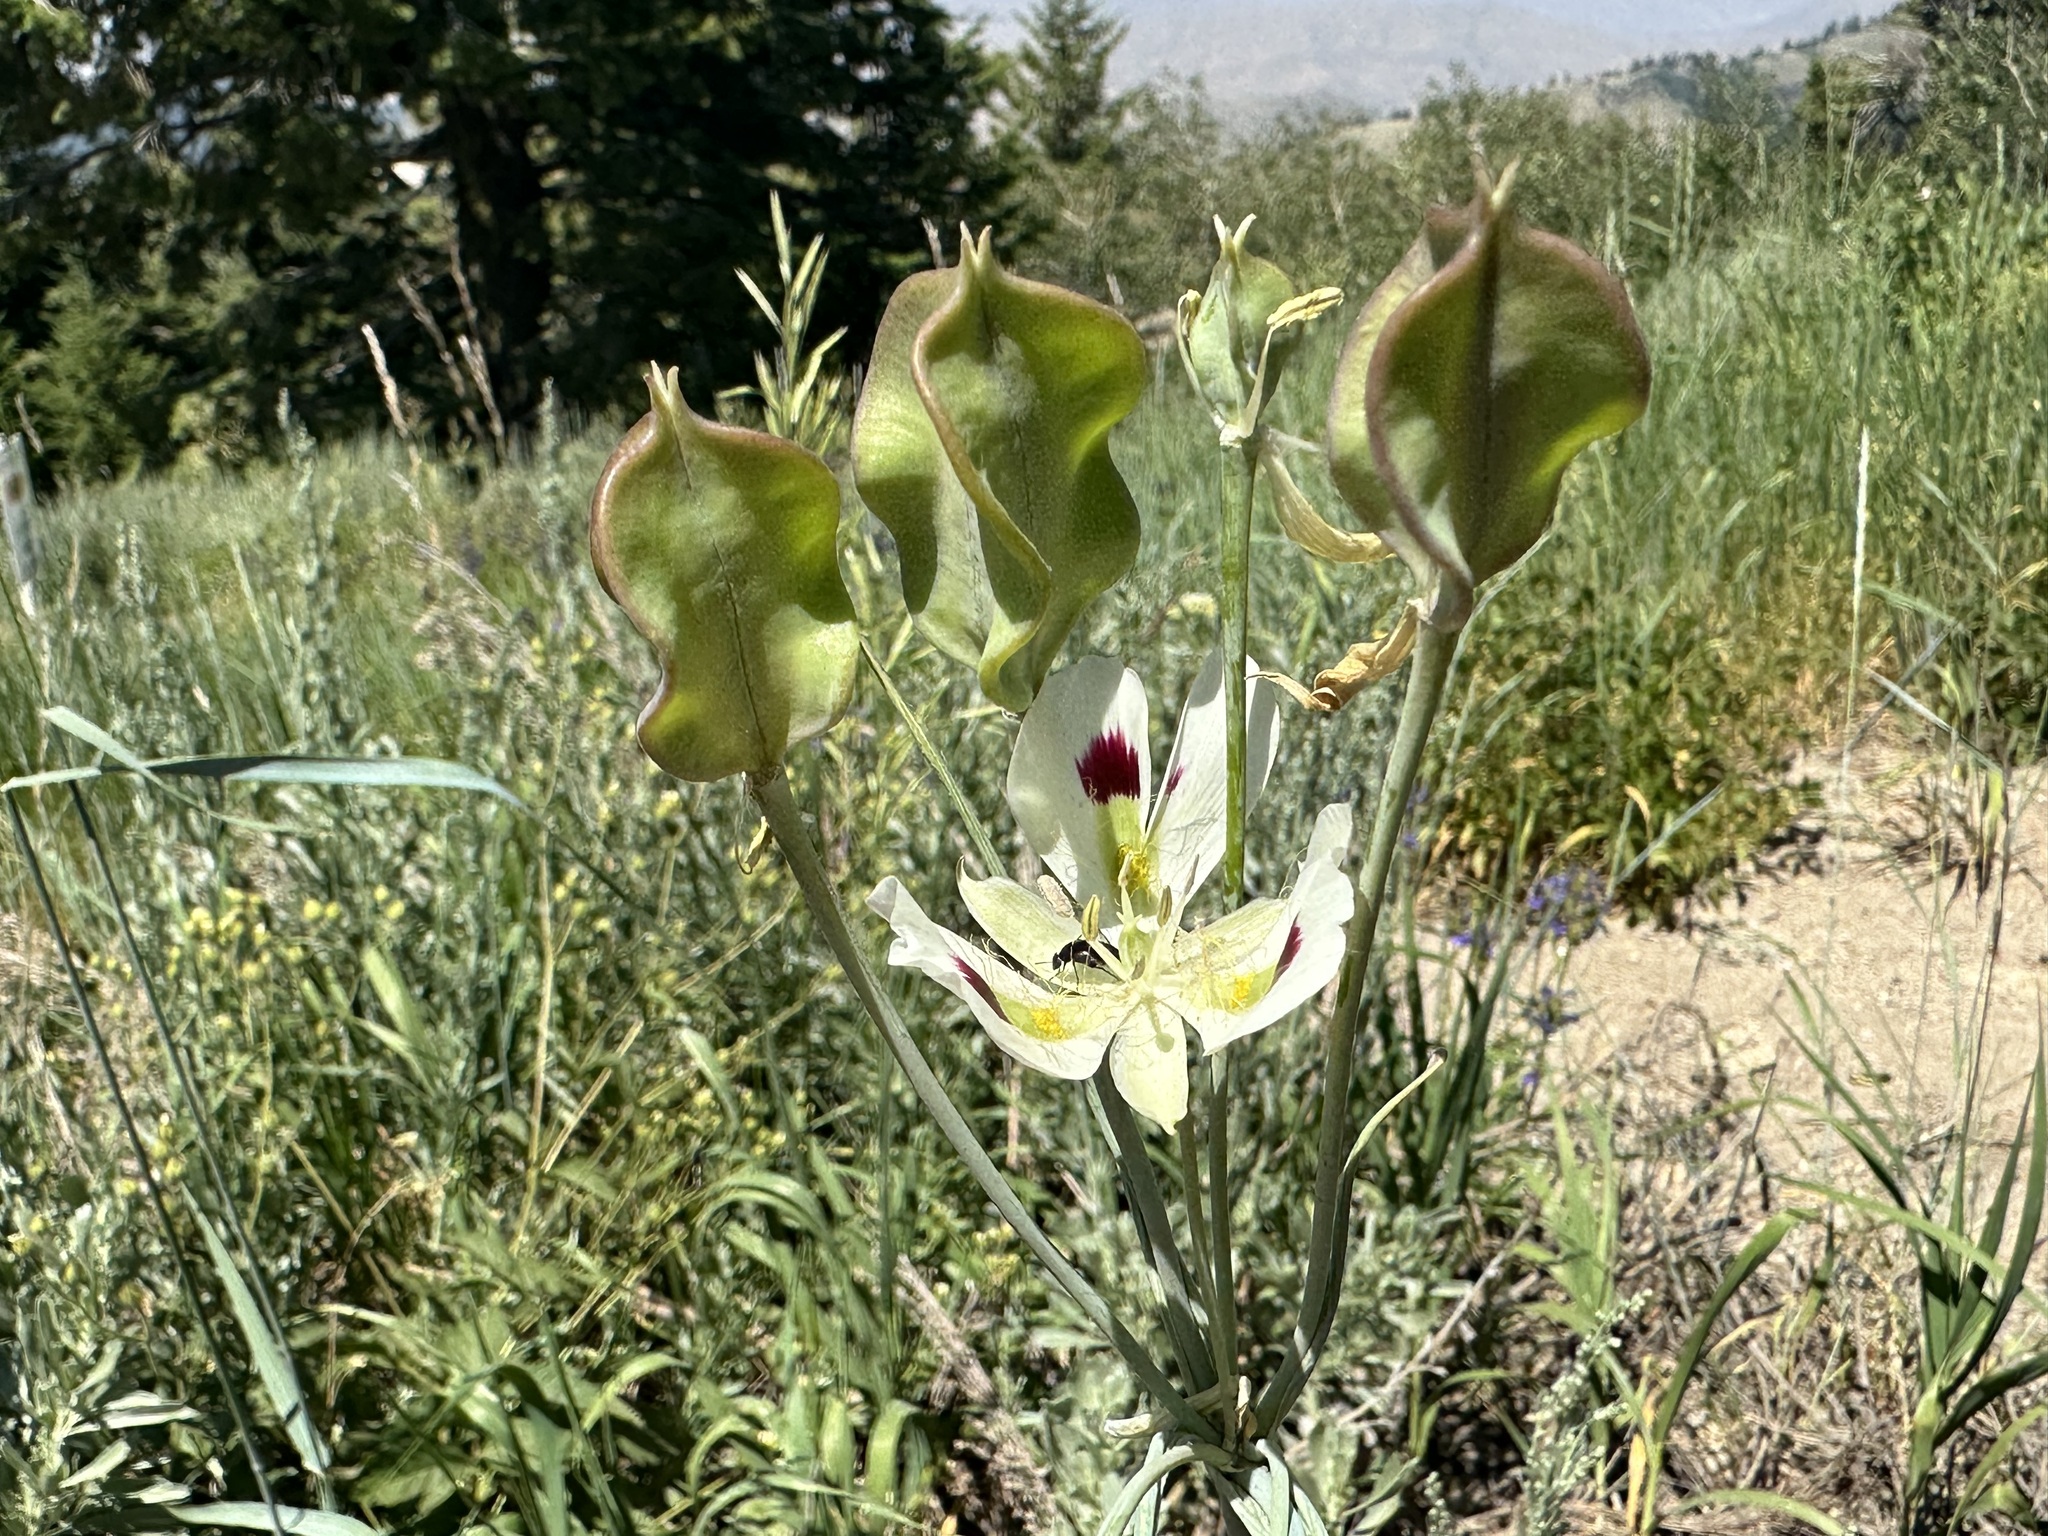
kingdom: Plantae
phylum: Tracheophyta
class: Liliopsida
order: Liliales
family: Liliaceae
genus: Calochortus
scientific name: Calochortus eurycarpus
